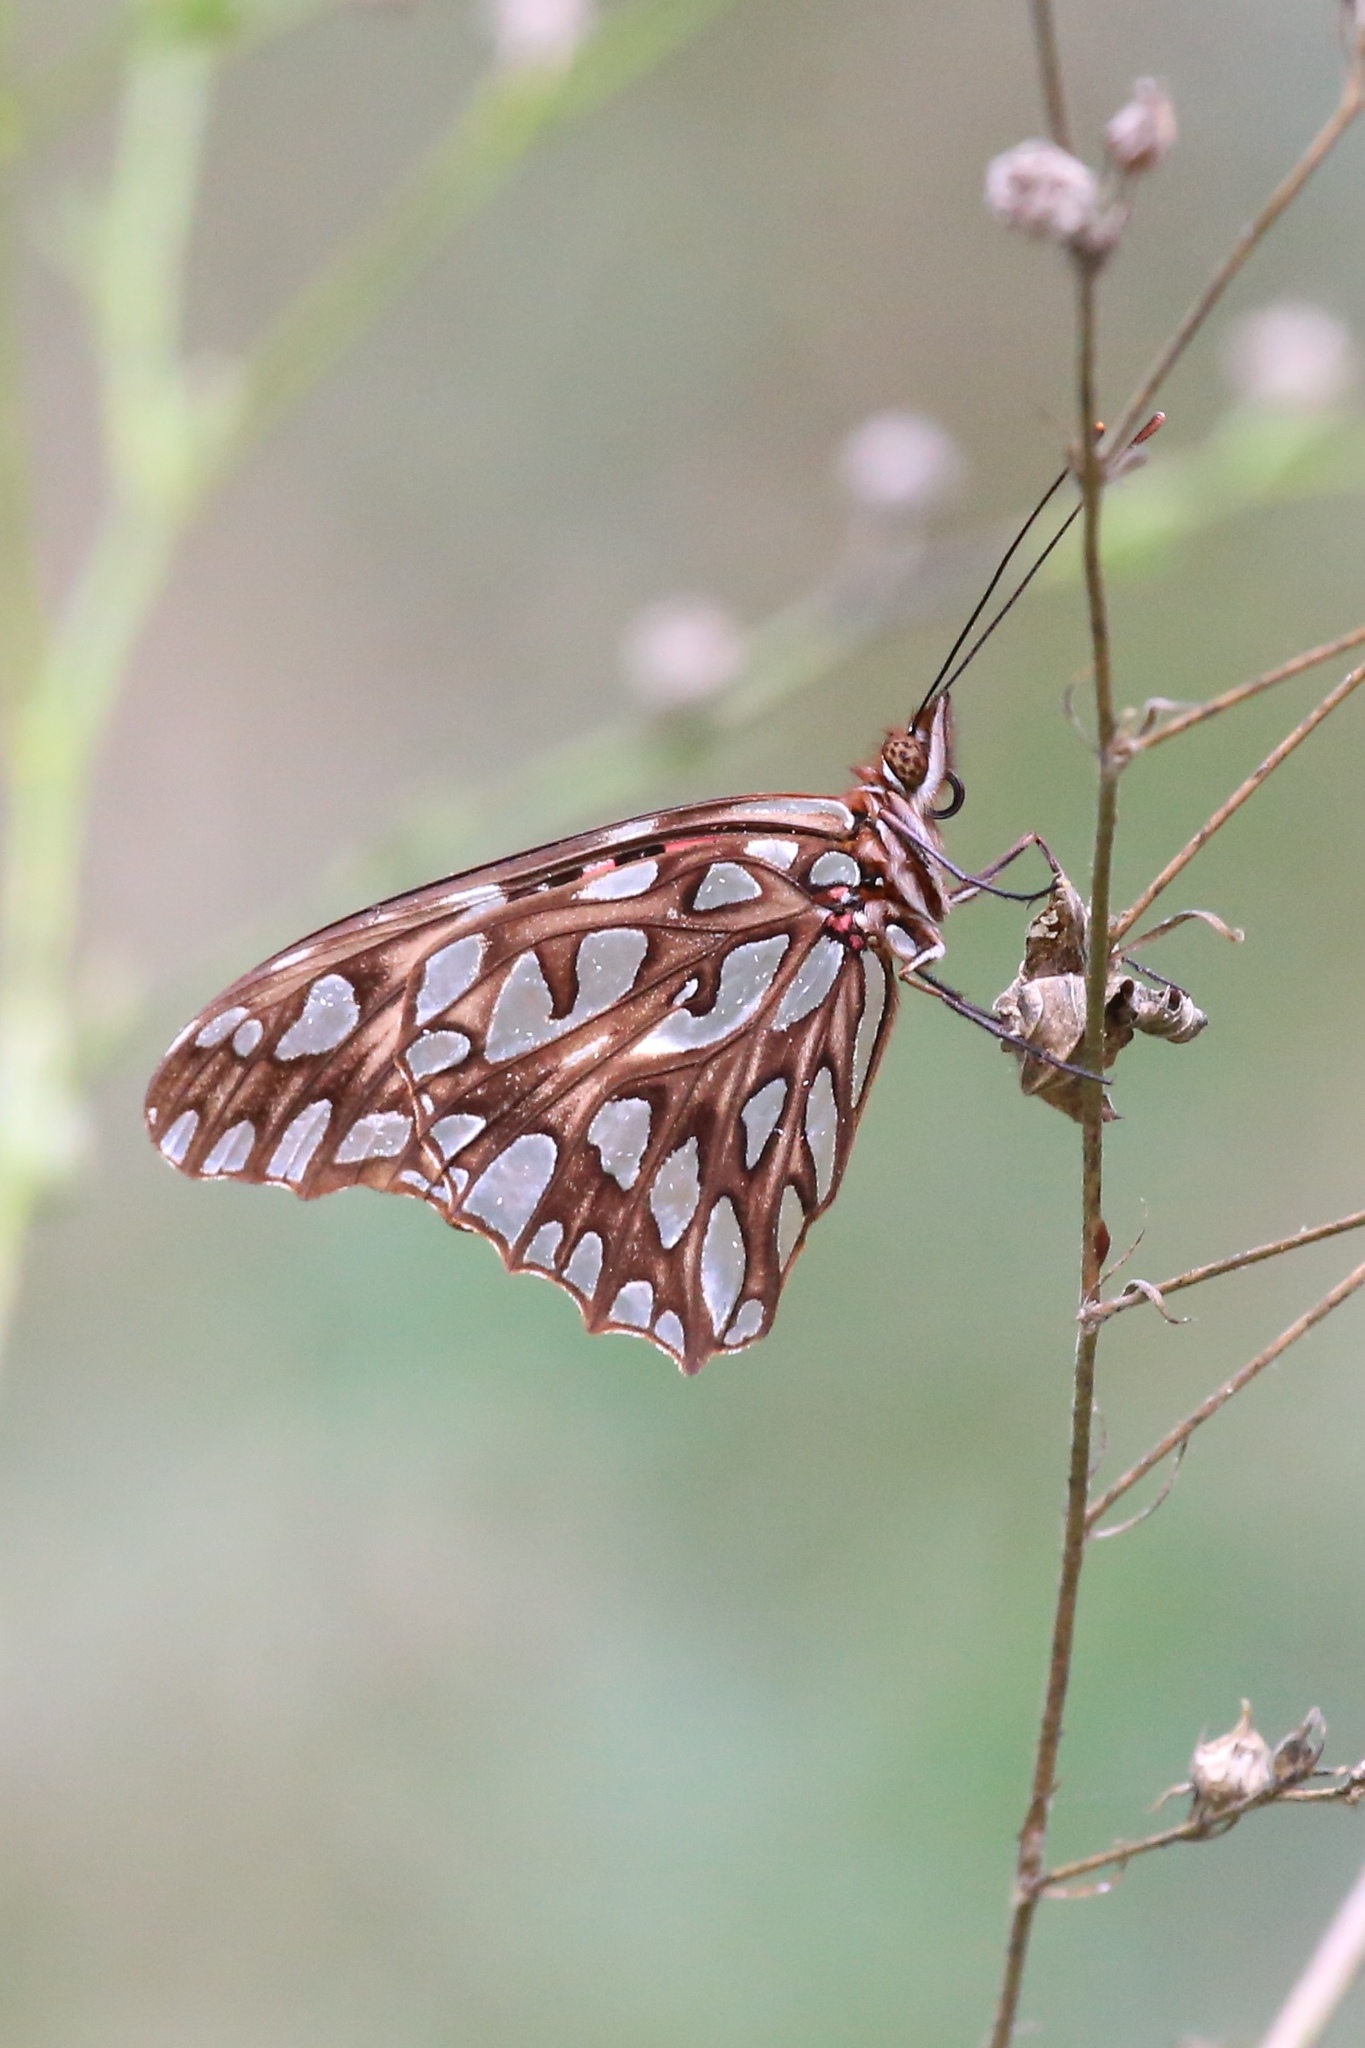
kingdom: Animalia
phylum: Arthropoda
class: Insecta
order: Lepidoptera
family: Nymphalidae
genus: Dione
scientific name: Dione moneta
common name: Mexican silverspot
